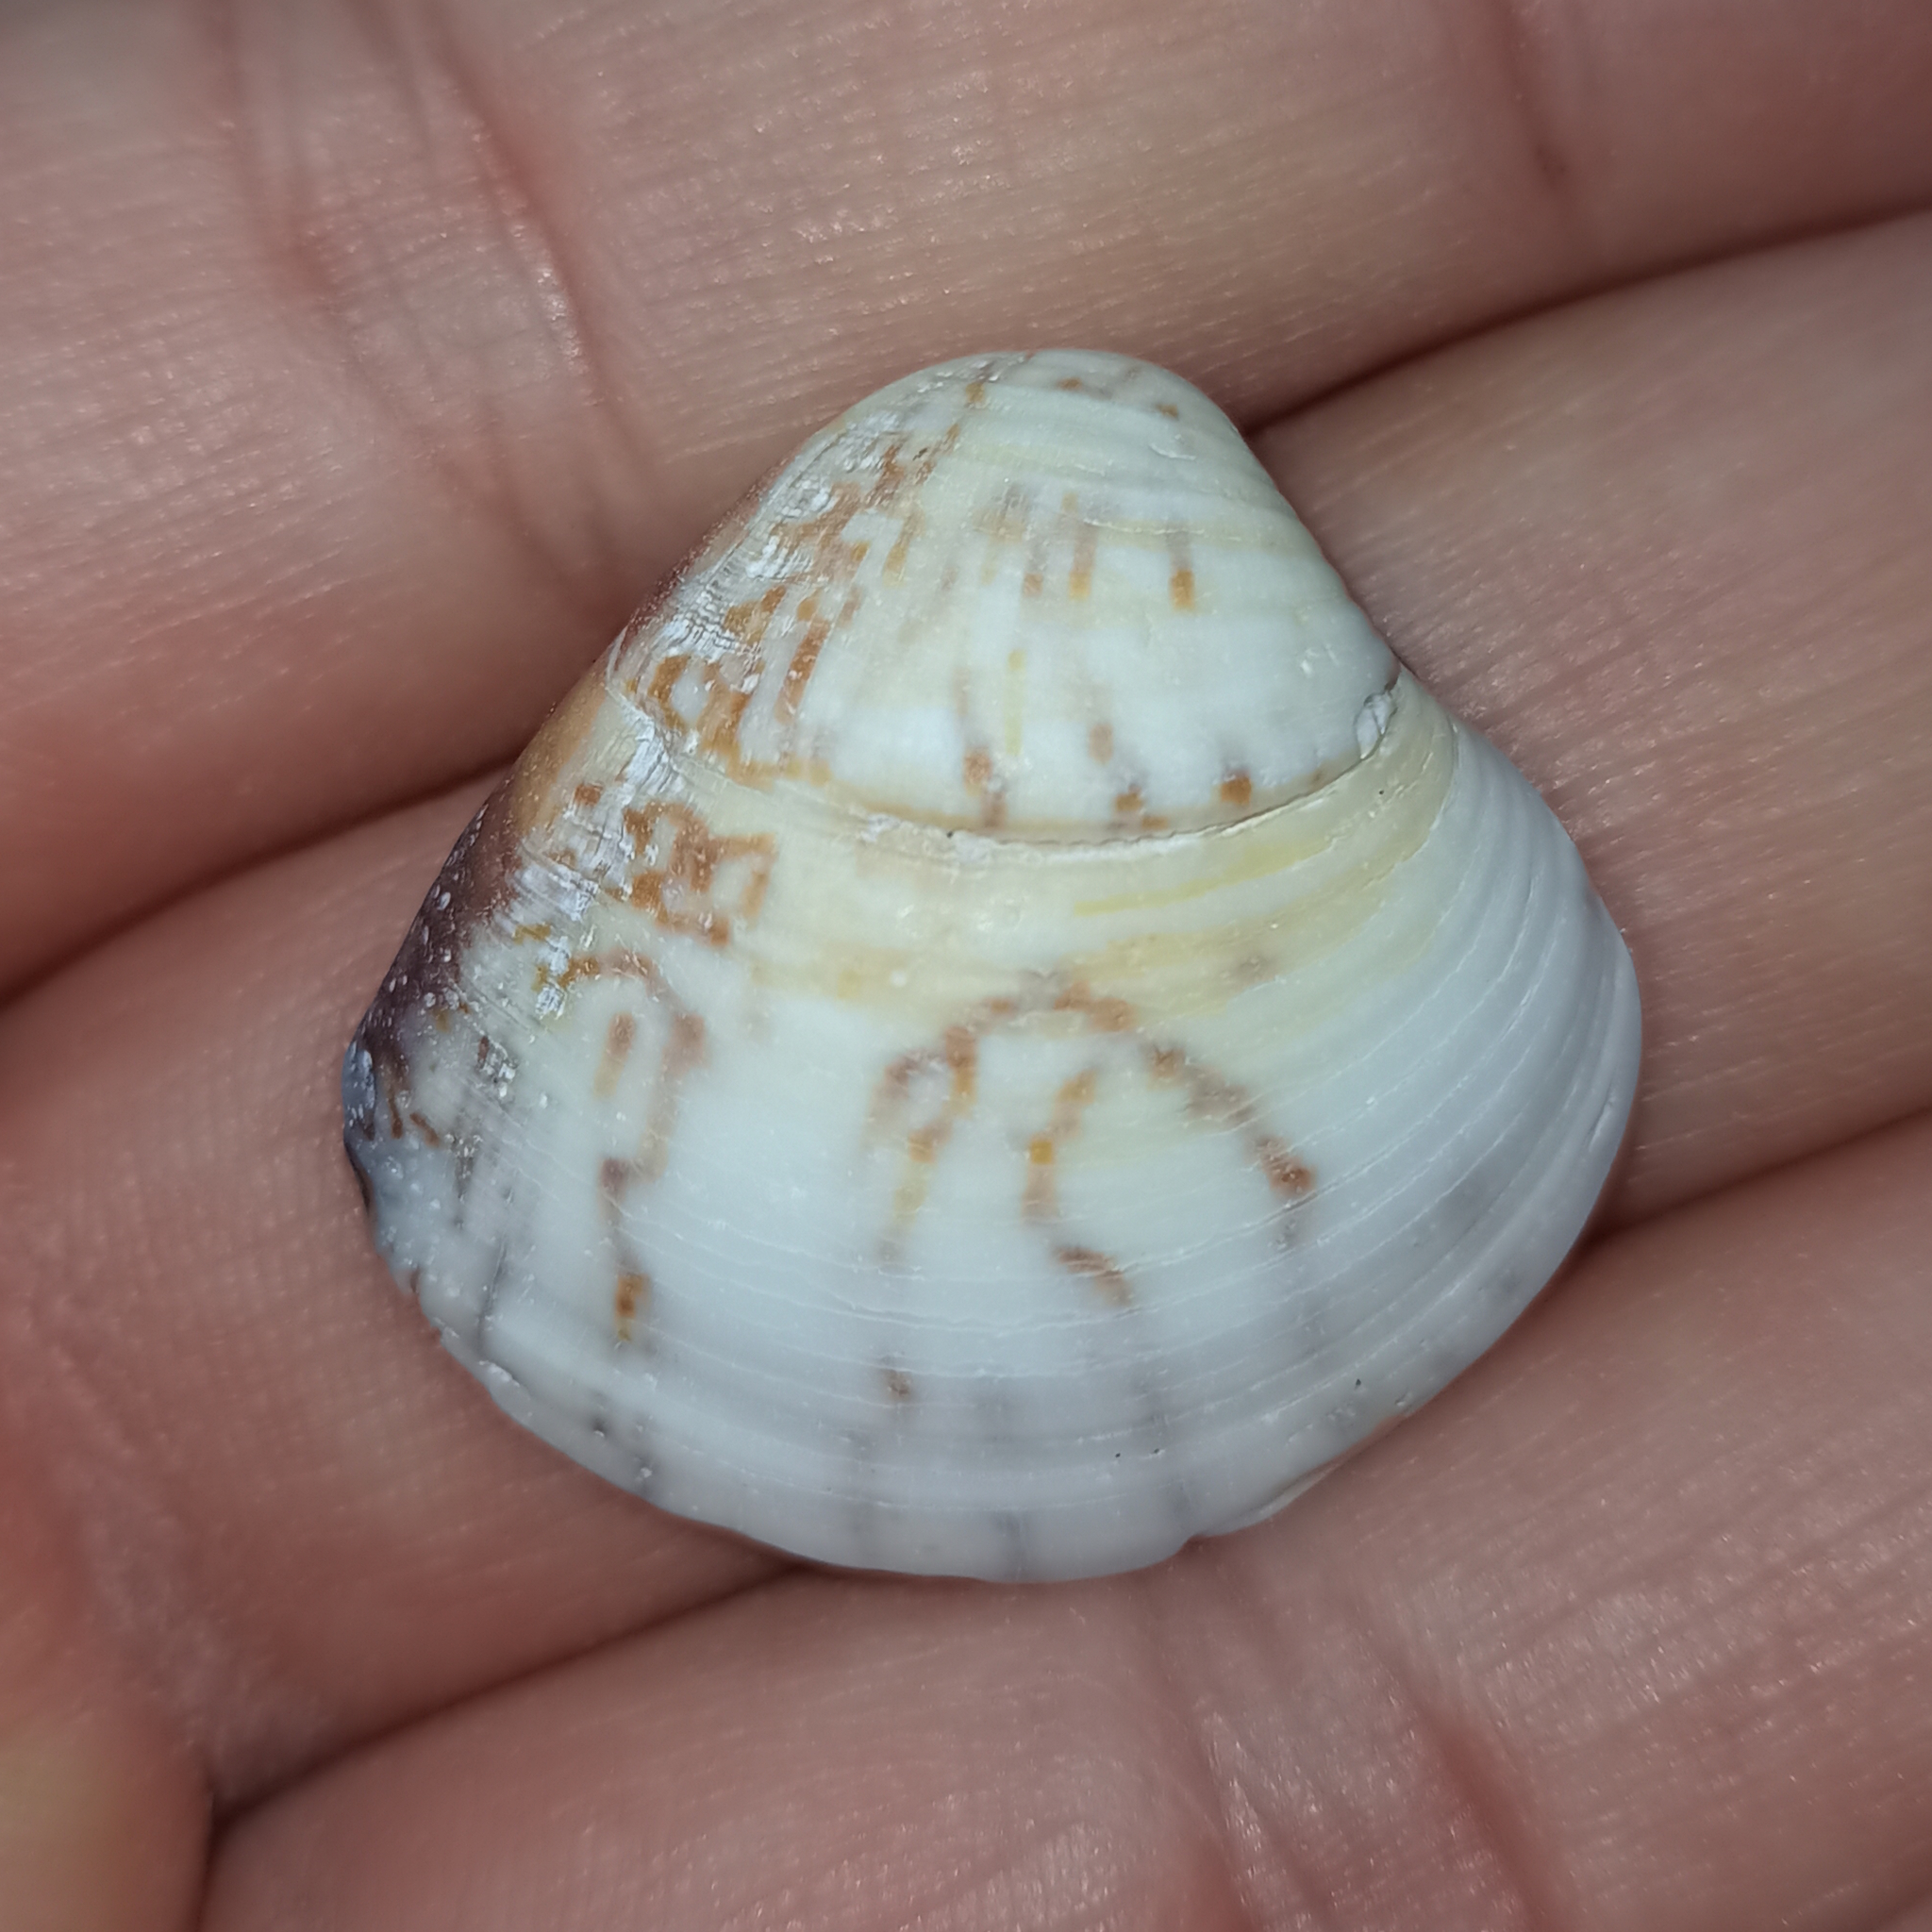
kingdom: Animalia
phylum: Mollusca
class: Bivalvia
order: Venerida
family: Veneridae
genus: Anomalocardia
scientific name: Anomalocardia flexuosa
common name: Carib pointed venus
